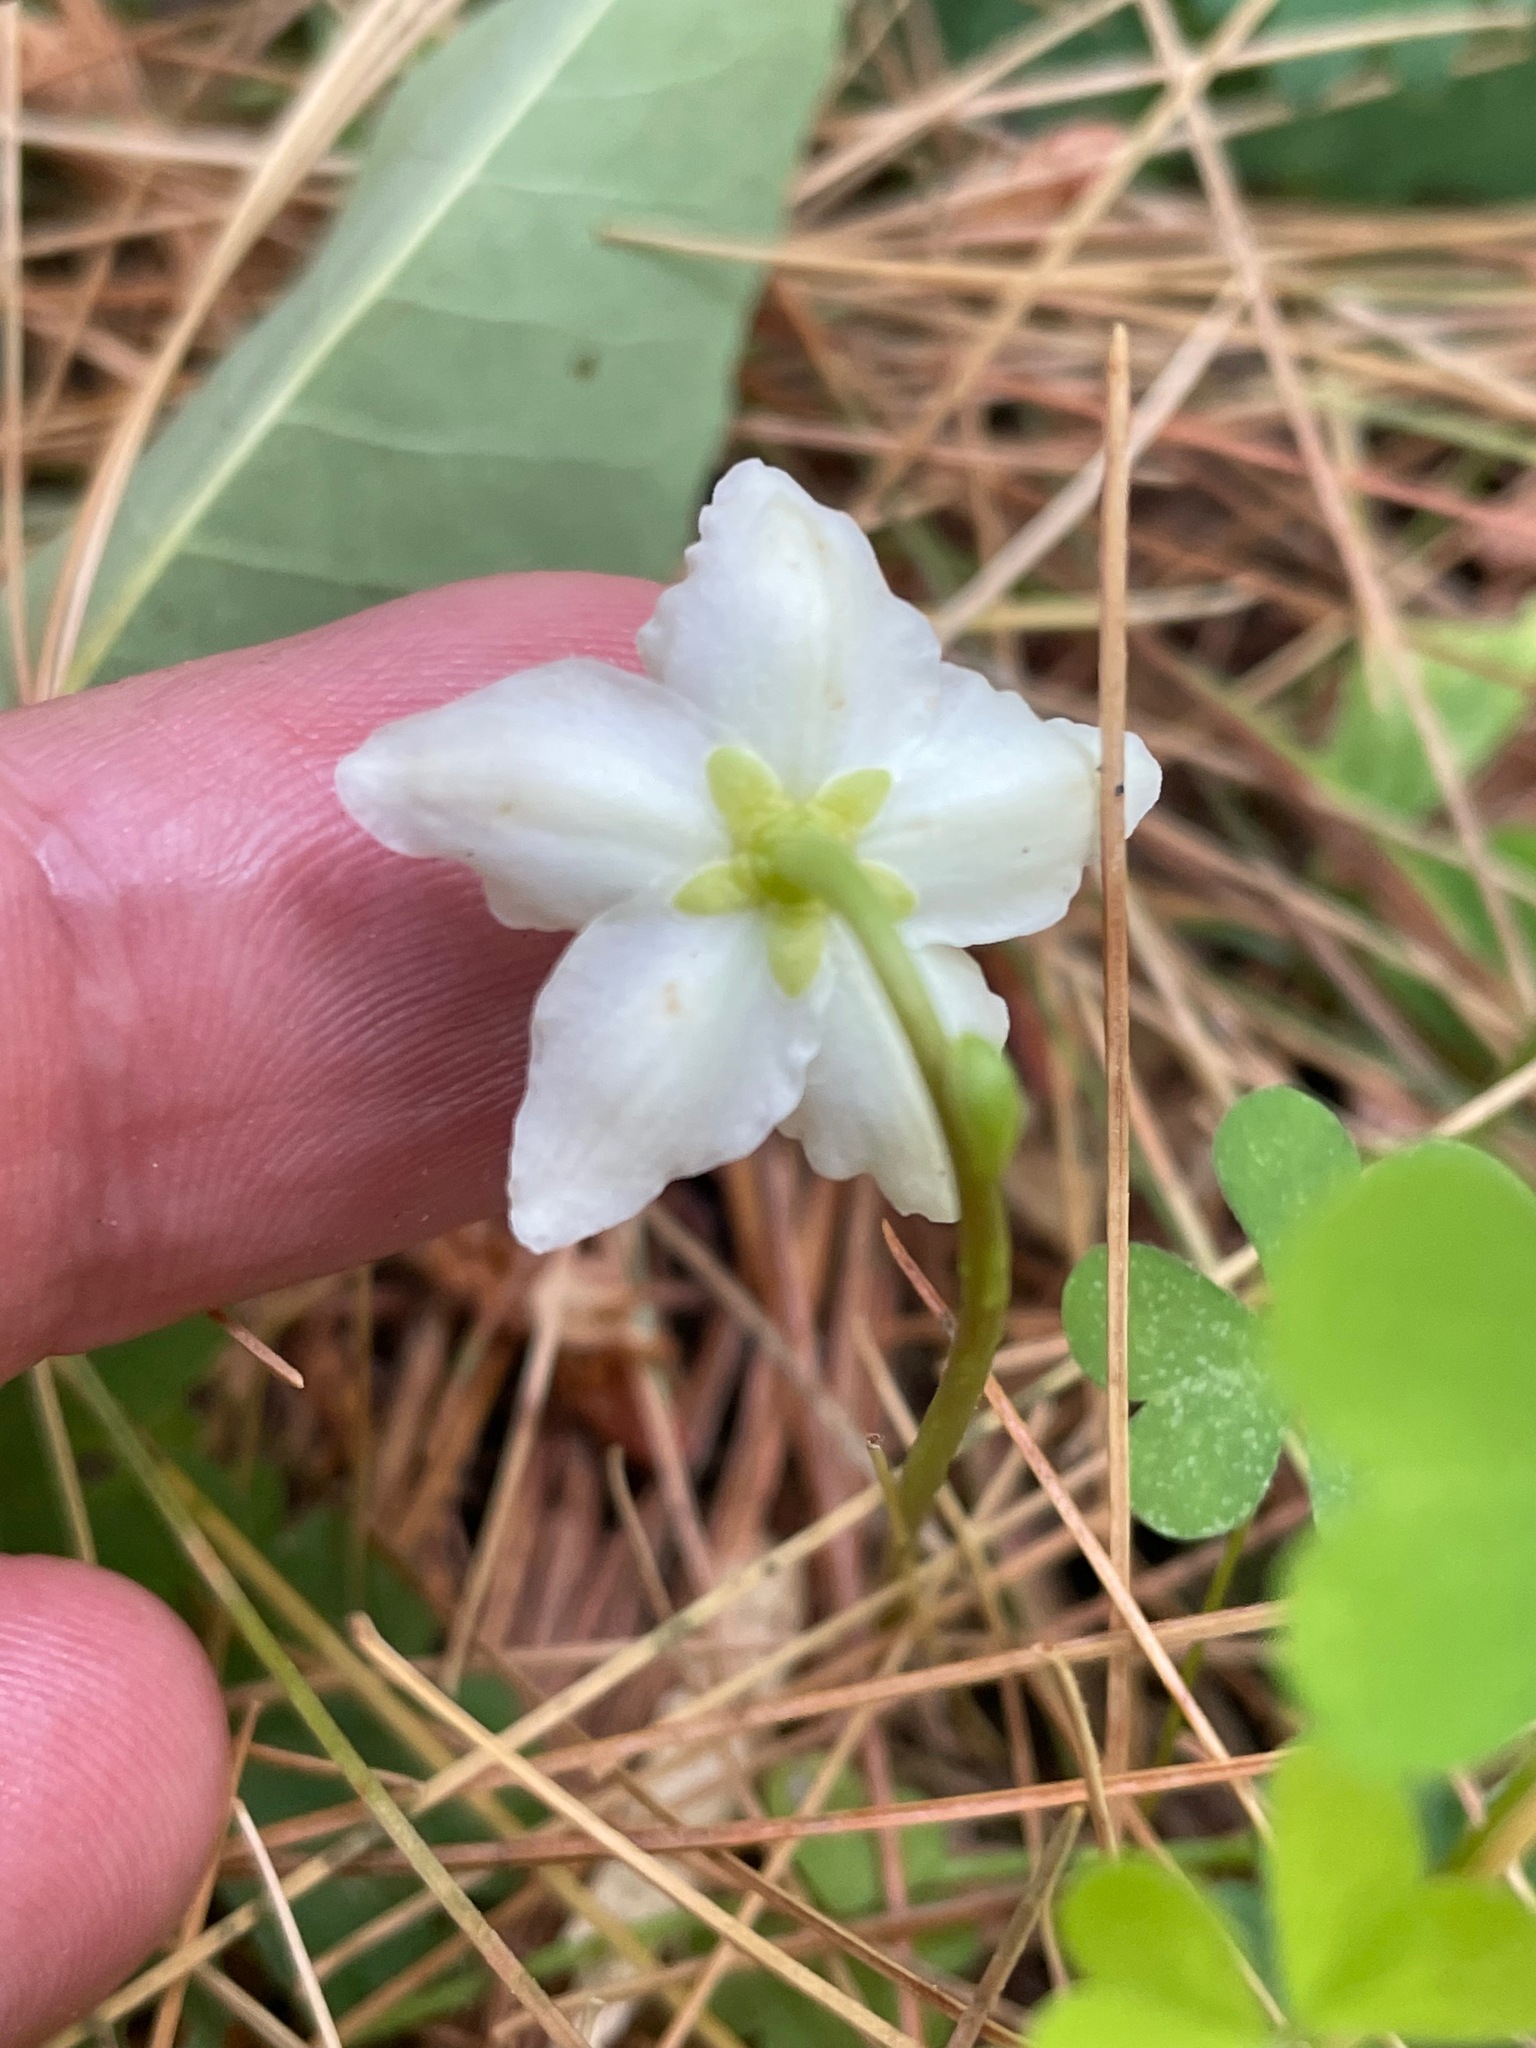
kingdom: Plantae
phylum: Tracheophyta
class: Magnoliopsida
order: Ericales
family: Ericaceae
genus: Moneses
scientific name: Moneses uniflora
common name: One-flowered wintergreen
